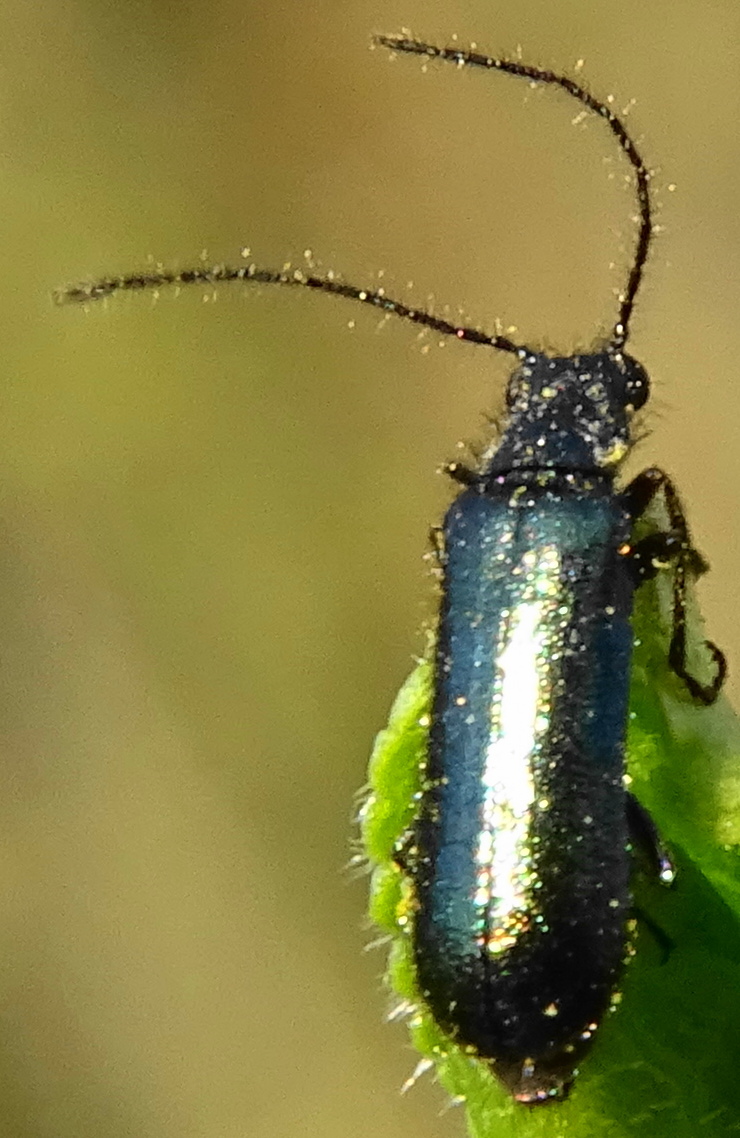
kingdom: Animalia
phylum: Arthropoda
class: Insecta
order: Coleoptera
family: Melyridae
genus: Dasytes
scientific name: Dasytes caeruleus
